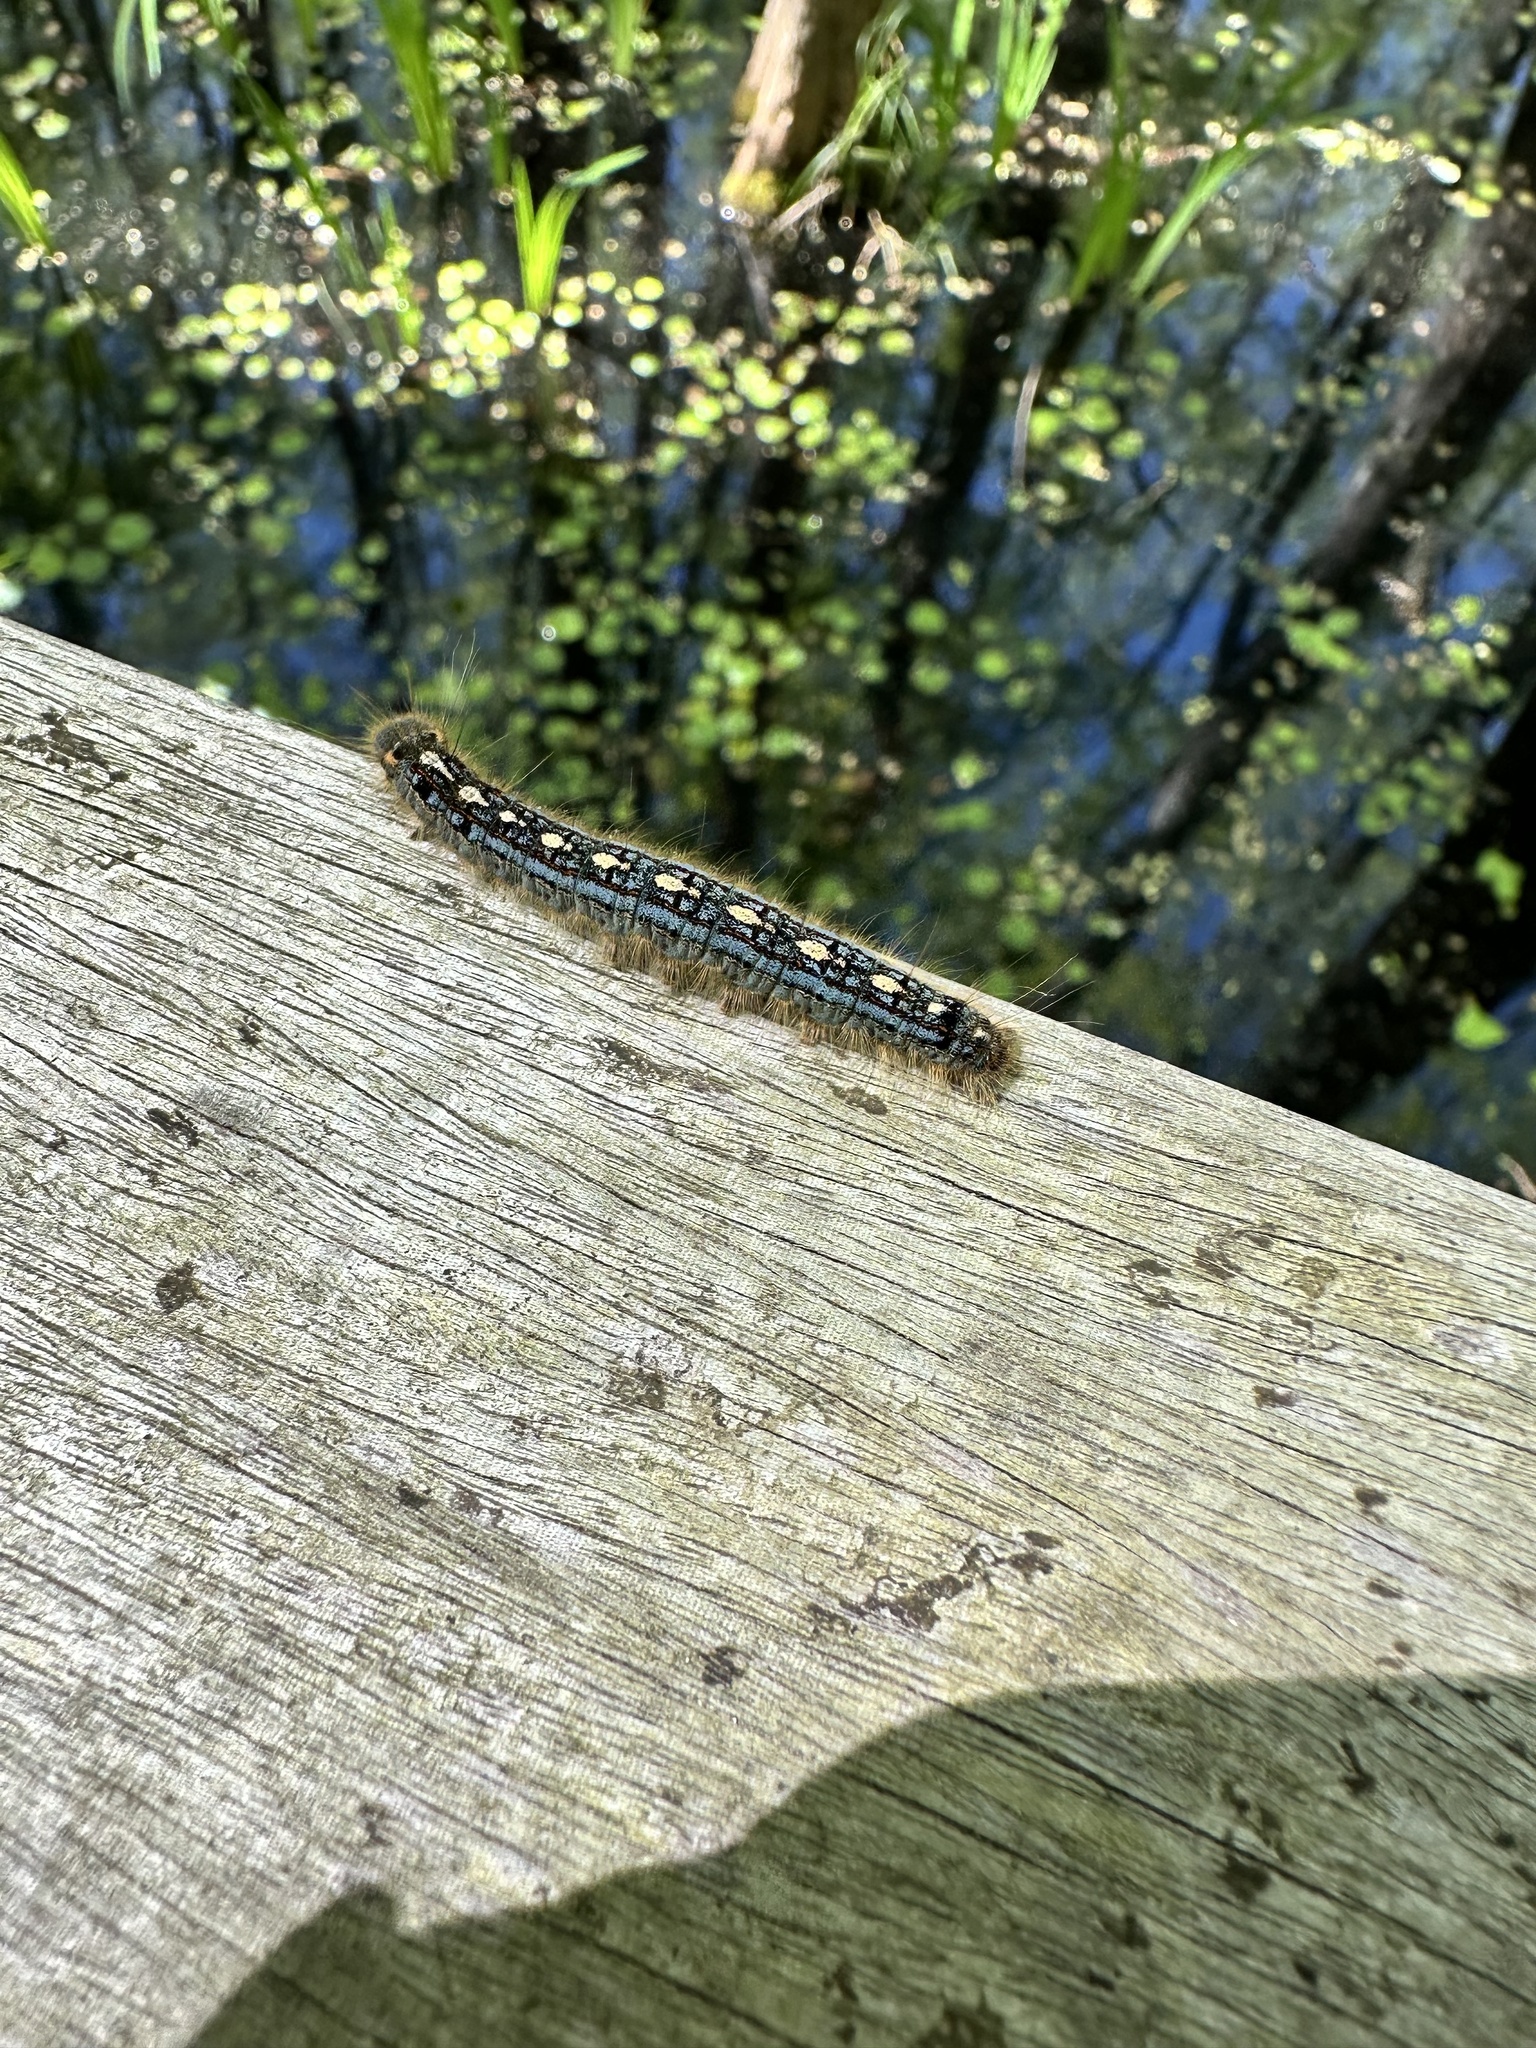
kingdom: Animalia
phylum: Arthropoda
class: Insecta
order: Lepidoptera
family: Lasiocampidae
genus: Malacosoma
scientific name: Malacosoma disstria
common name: Forest tent caterpillar
